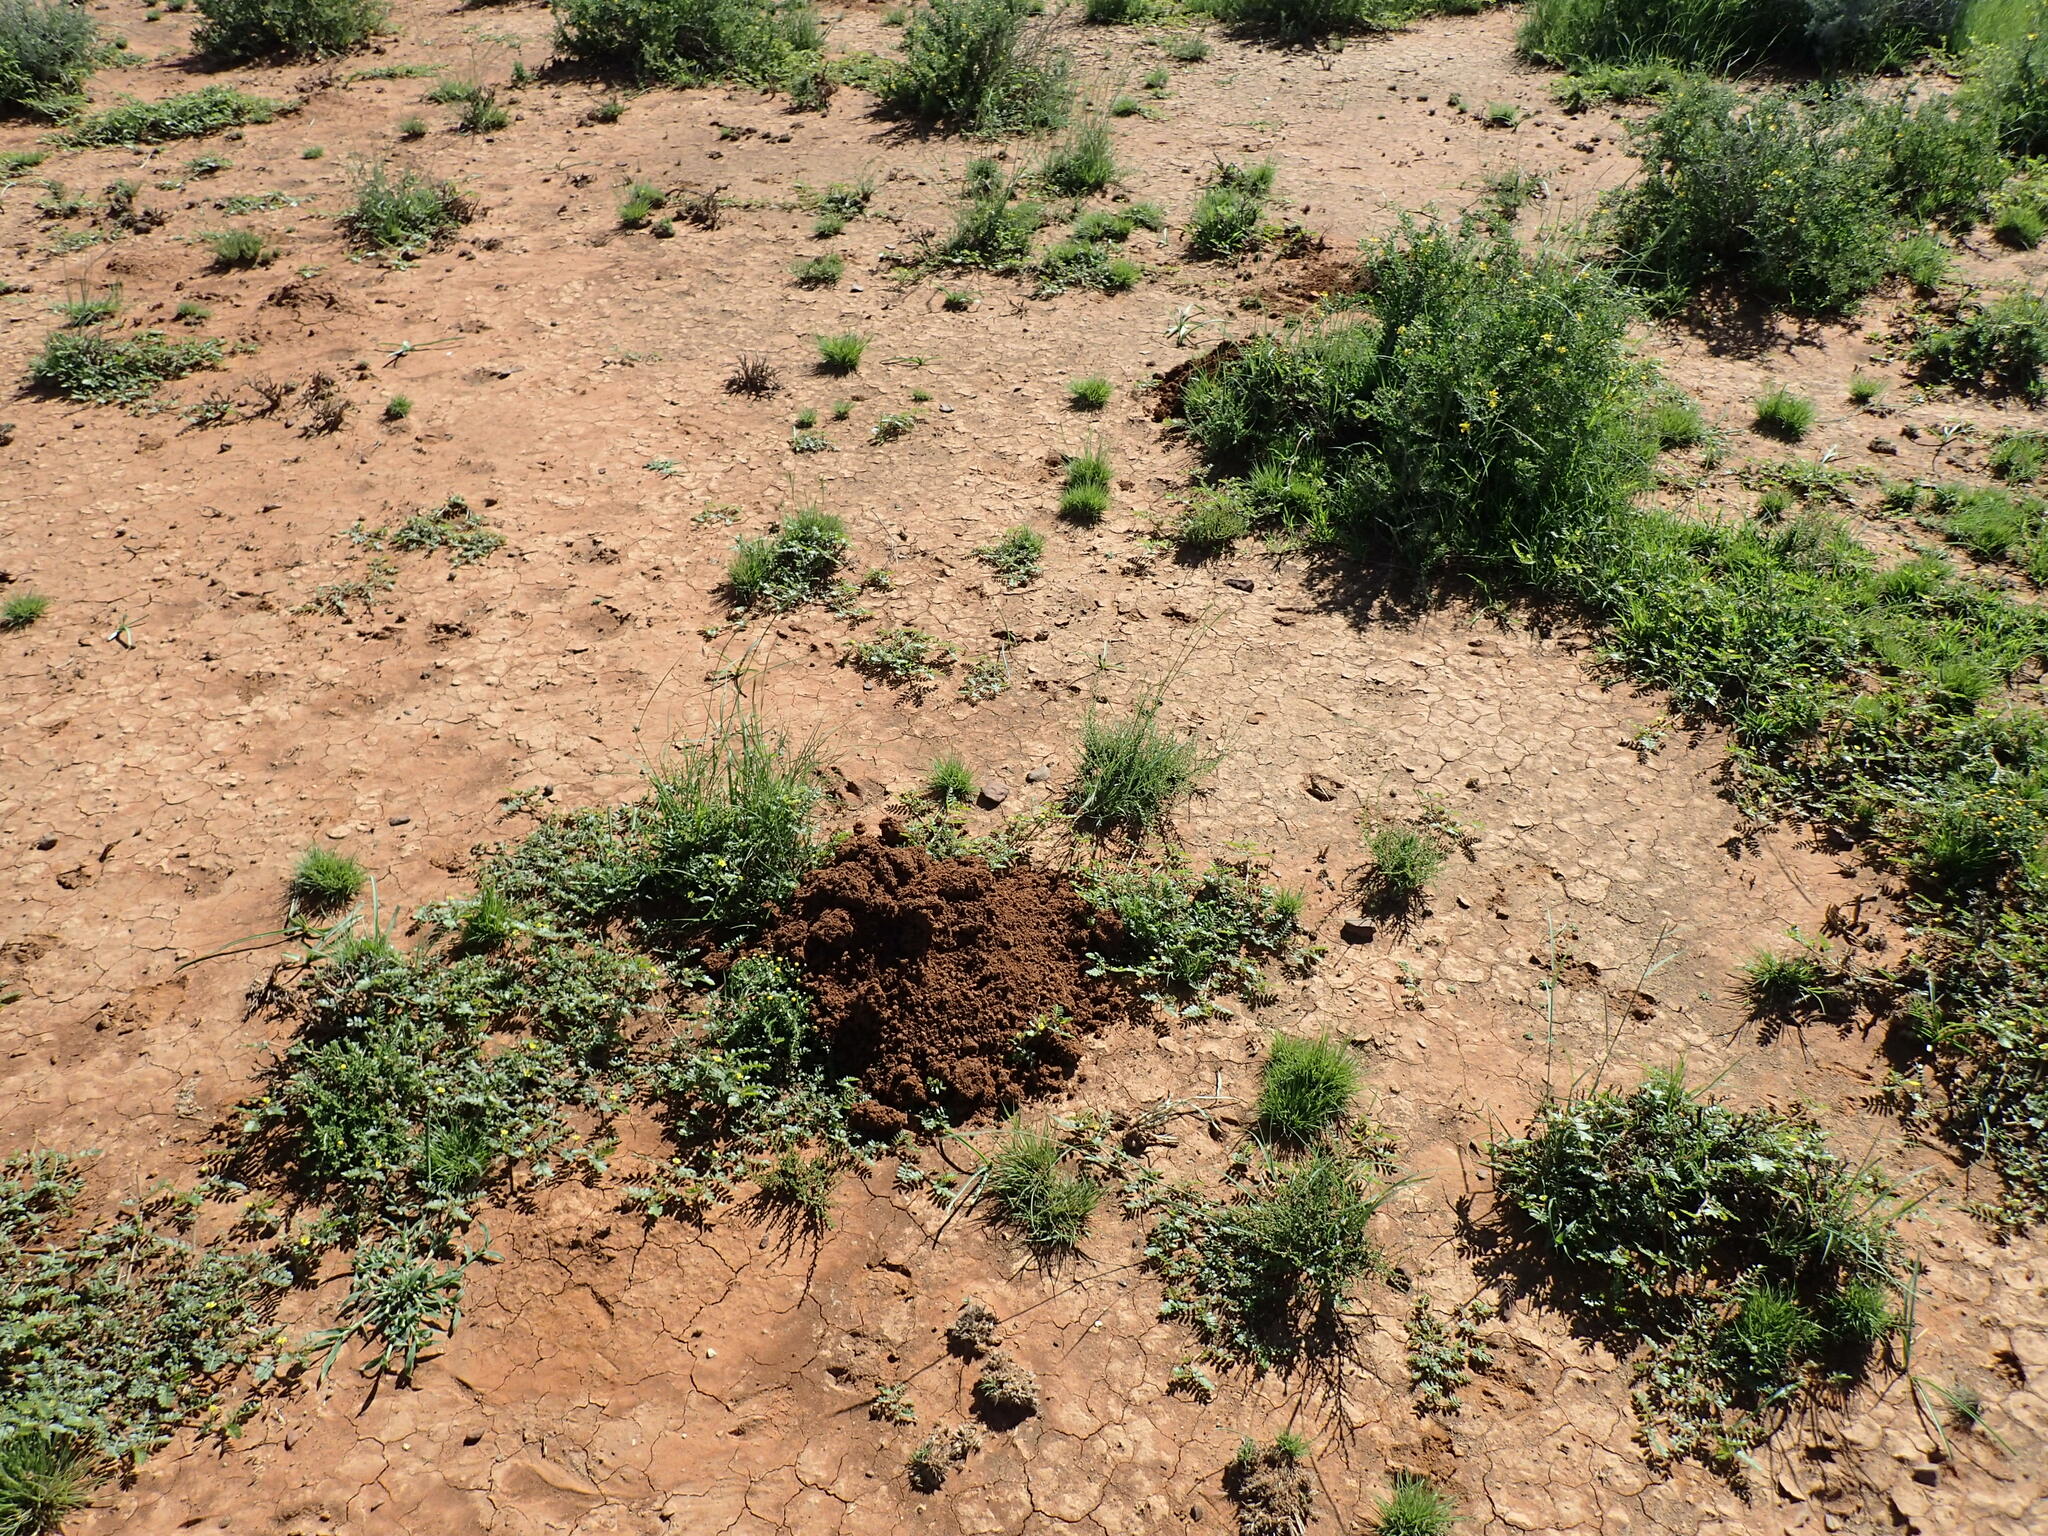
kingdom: Animalia
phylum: Chordata
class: Mammalia
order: Rodentia
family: Bathyergidae
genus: Cryptomys
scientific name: Cryptomys hottentotus
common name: Southern african mole-rat
